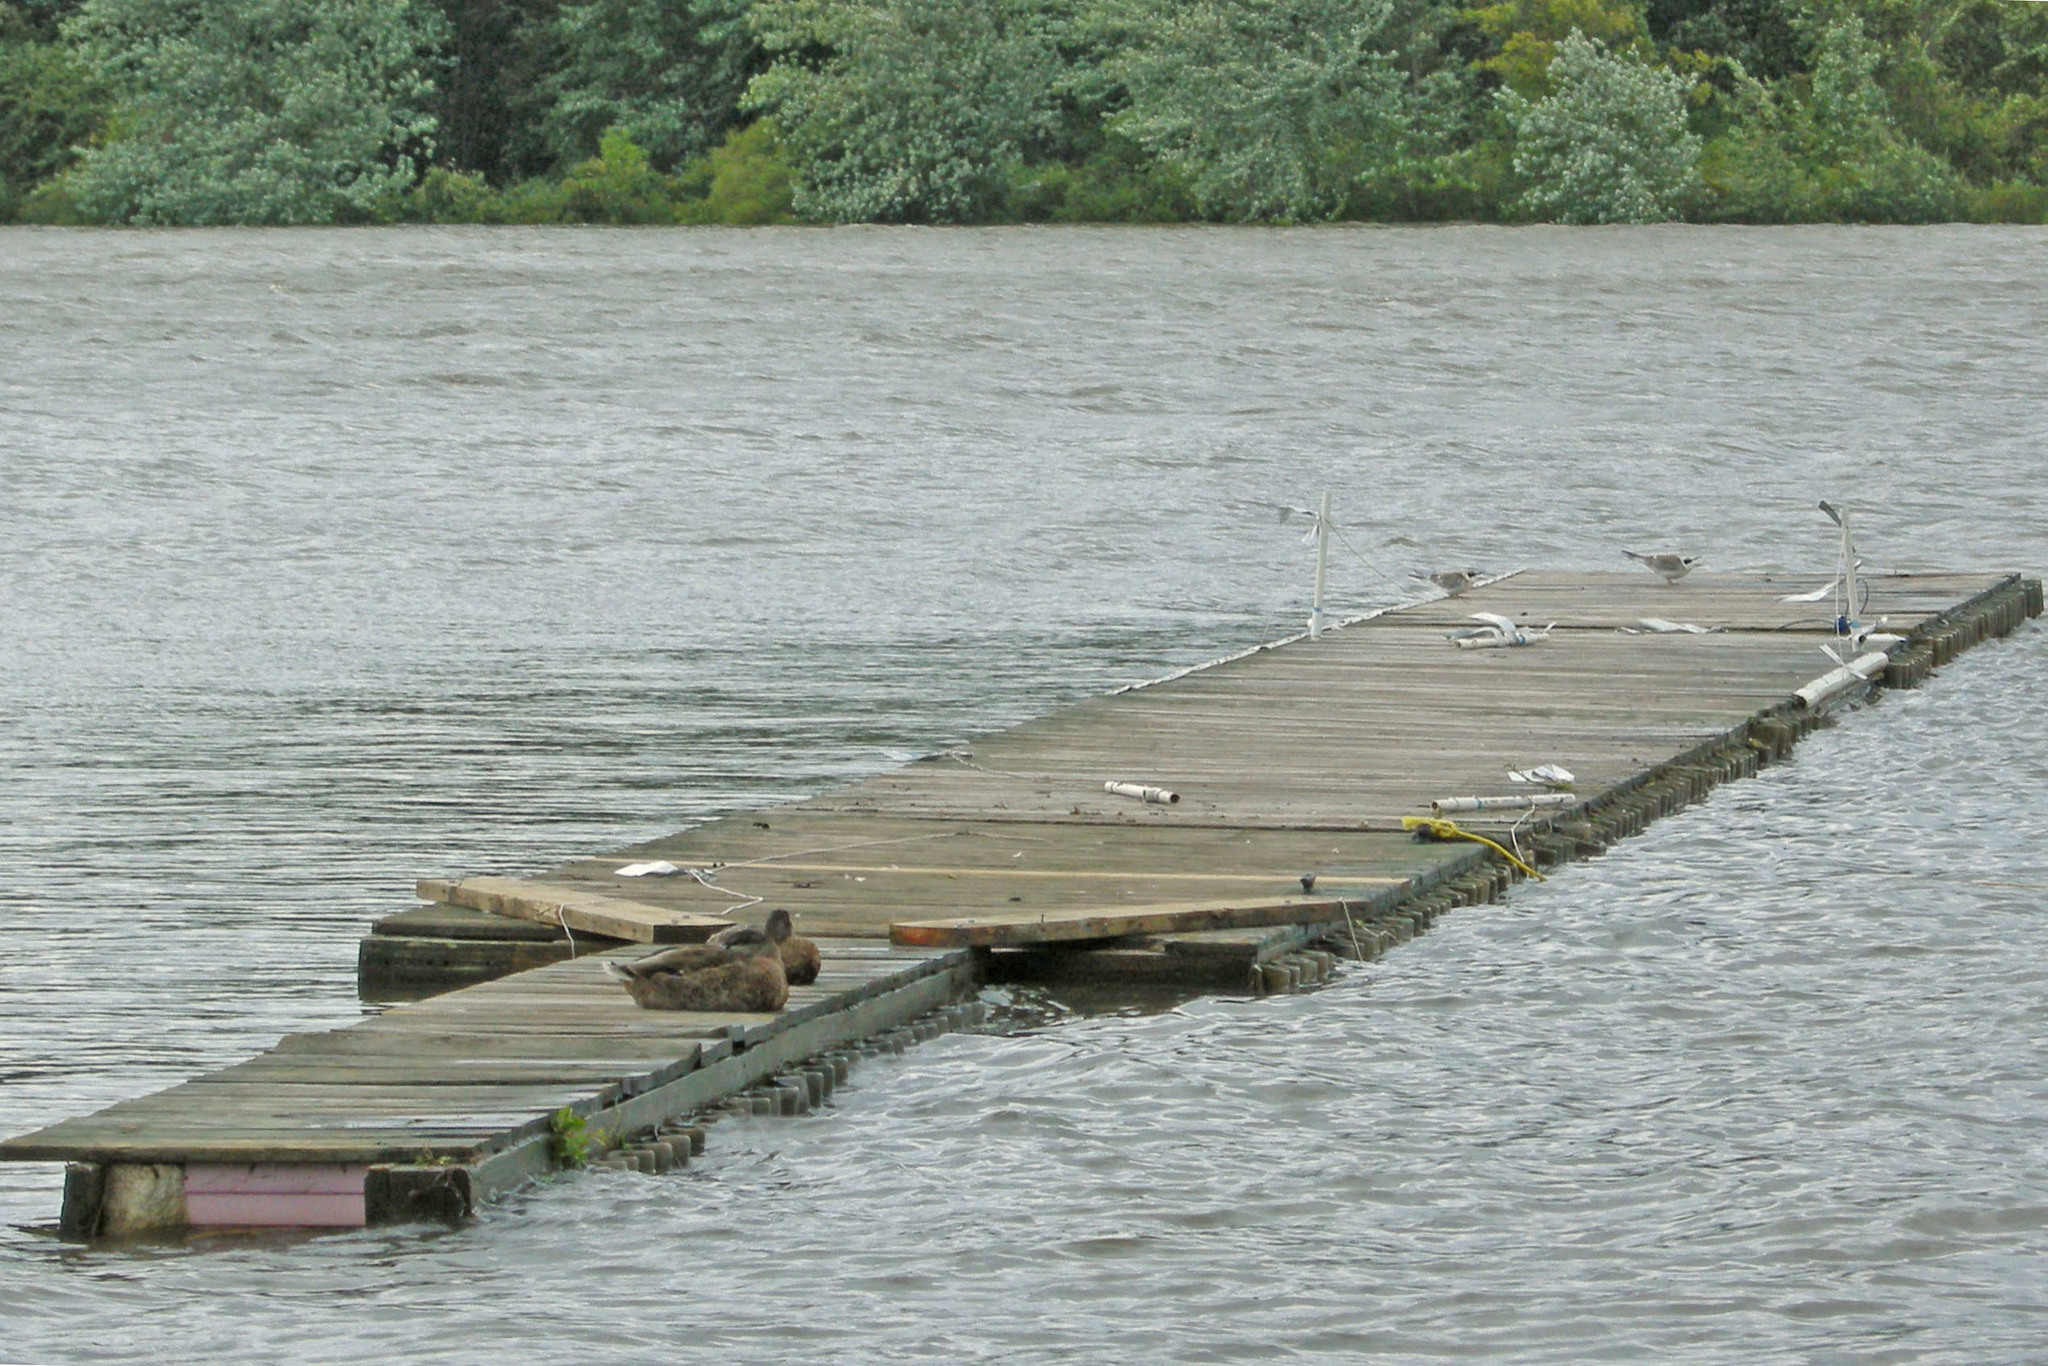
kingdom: Animalia
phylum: Chordata
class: Aves
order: Charadriiformes
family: Laridae
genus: Sterna
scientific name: Sterna forsteri
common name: Forster's tern
